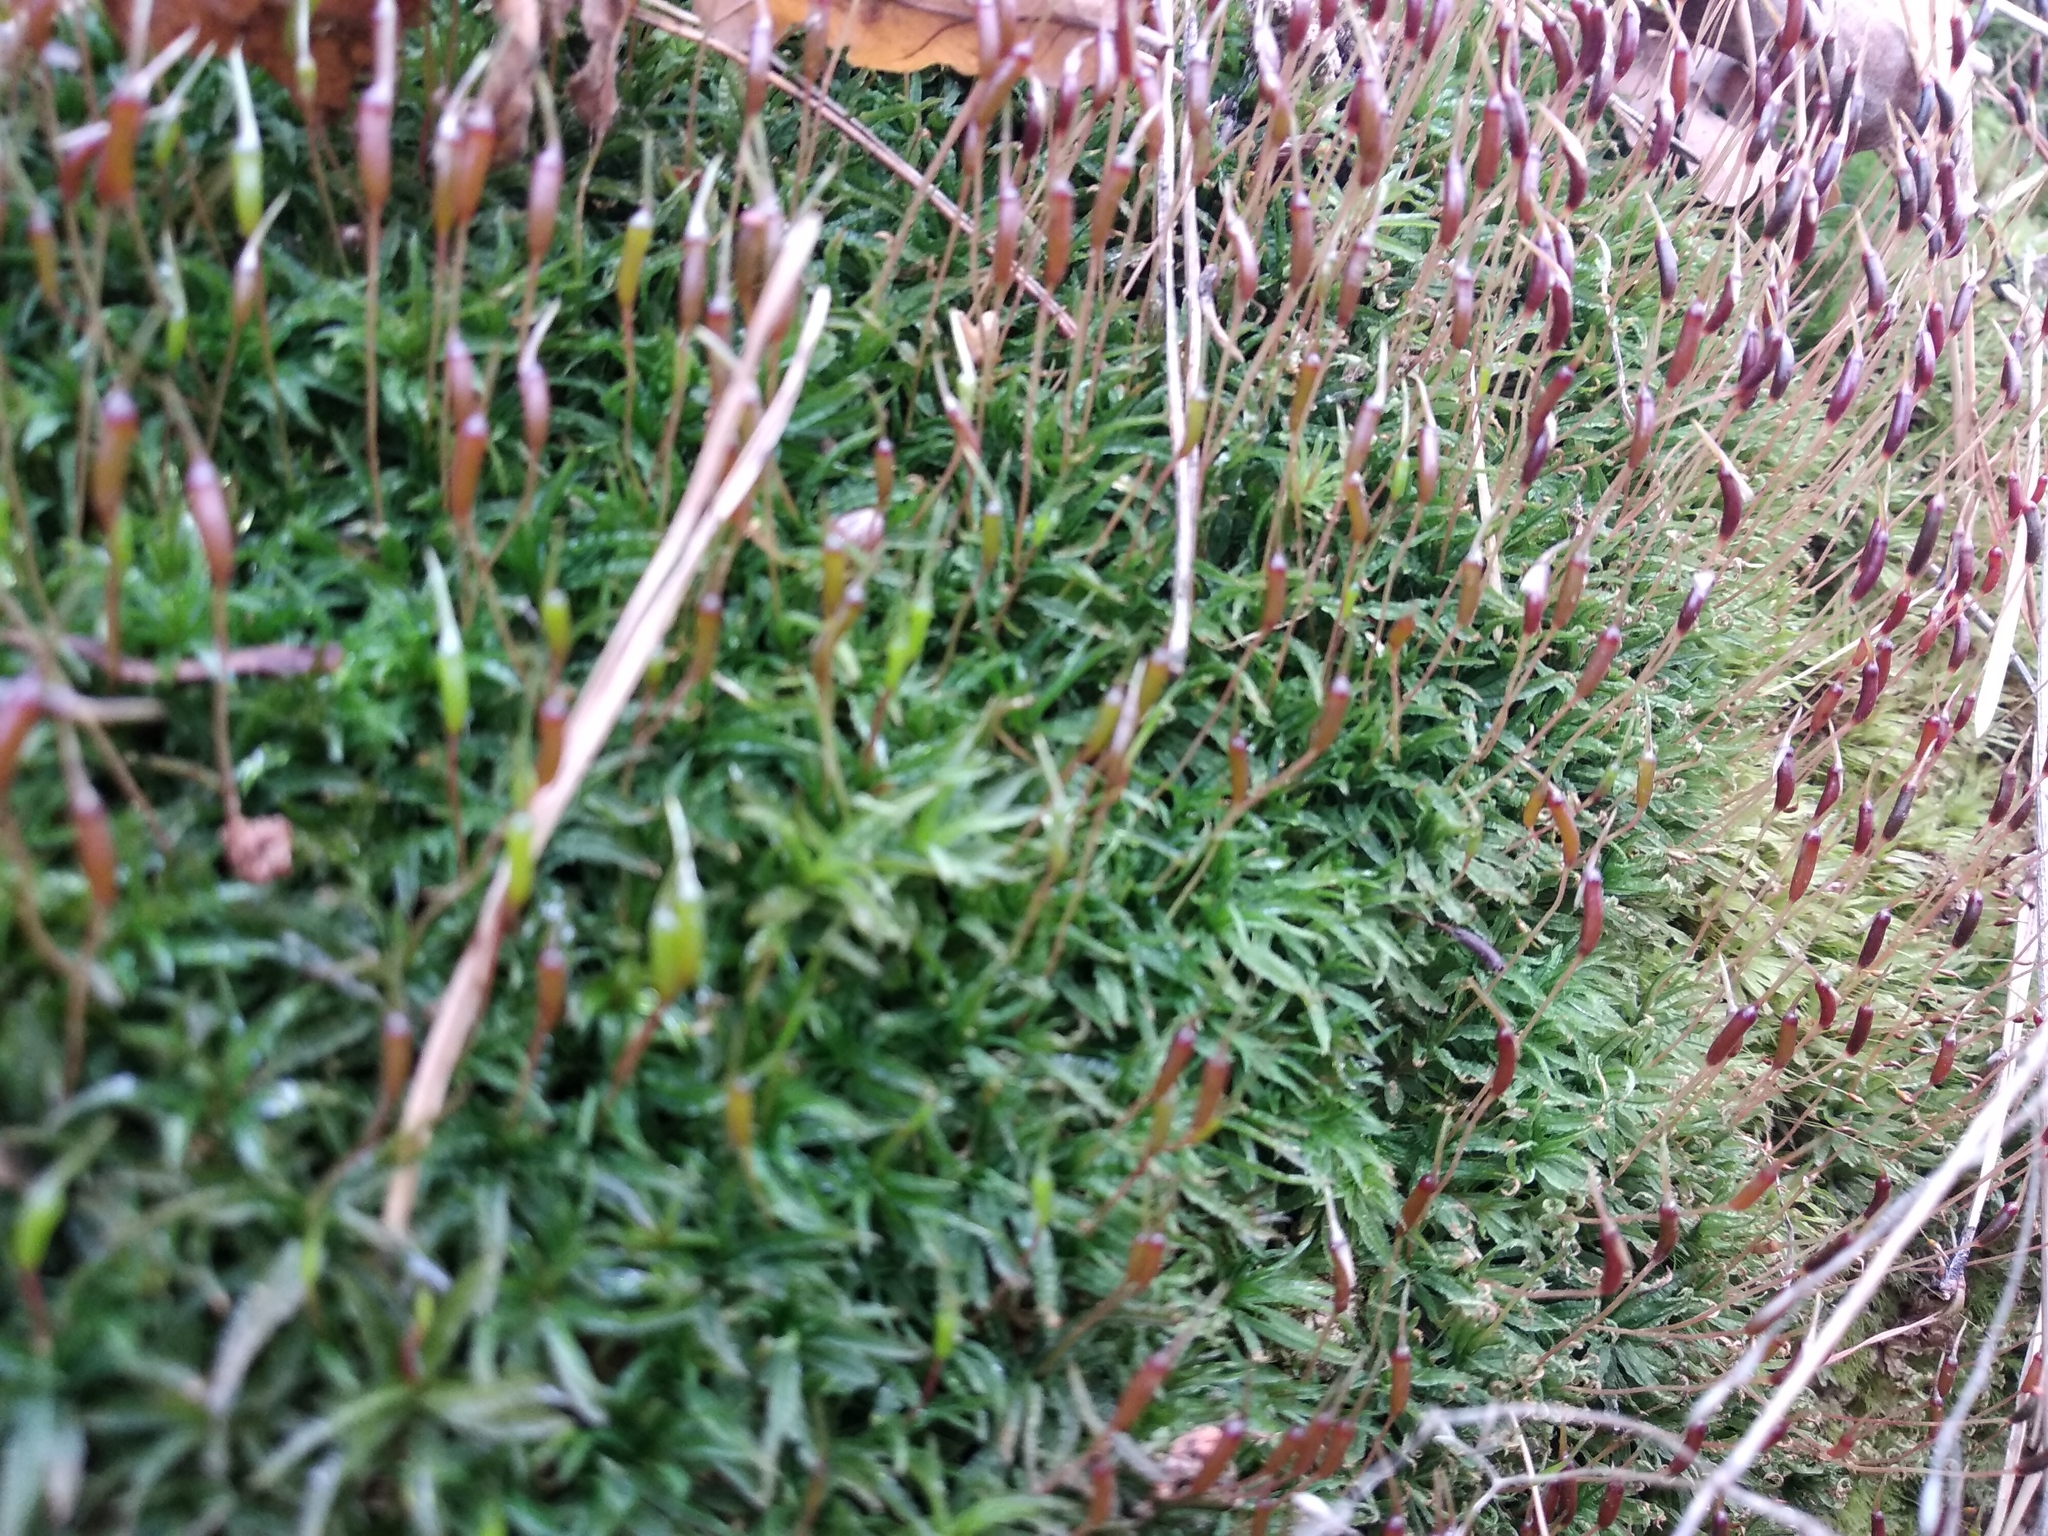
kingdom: Plantae
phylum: Bryophyta
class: Polytrichopsida
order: Polytrichales
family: Polytrichaceae
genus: Atrichum
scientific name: Atrichum undulatum
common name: Common smoothcap
